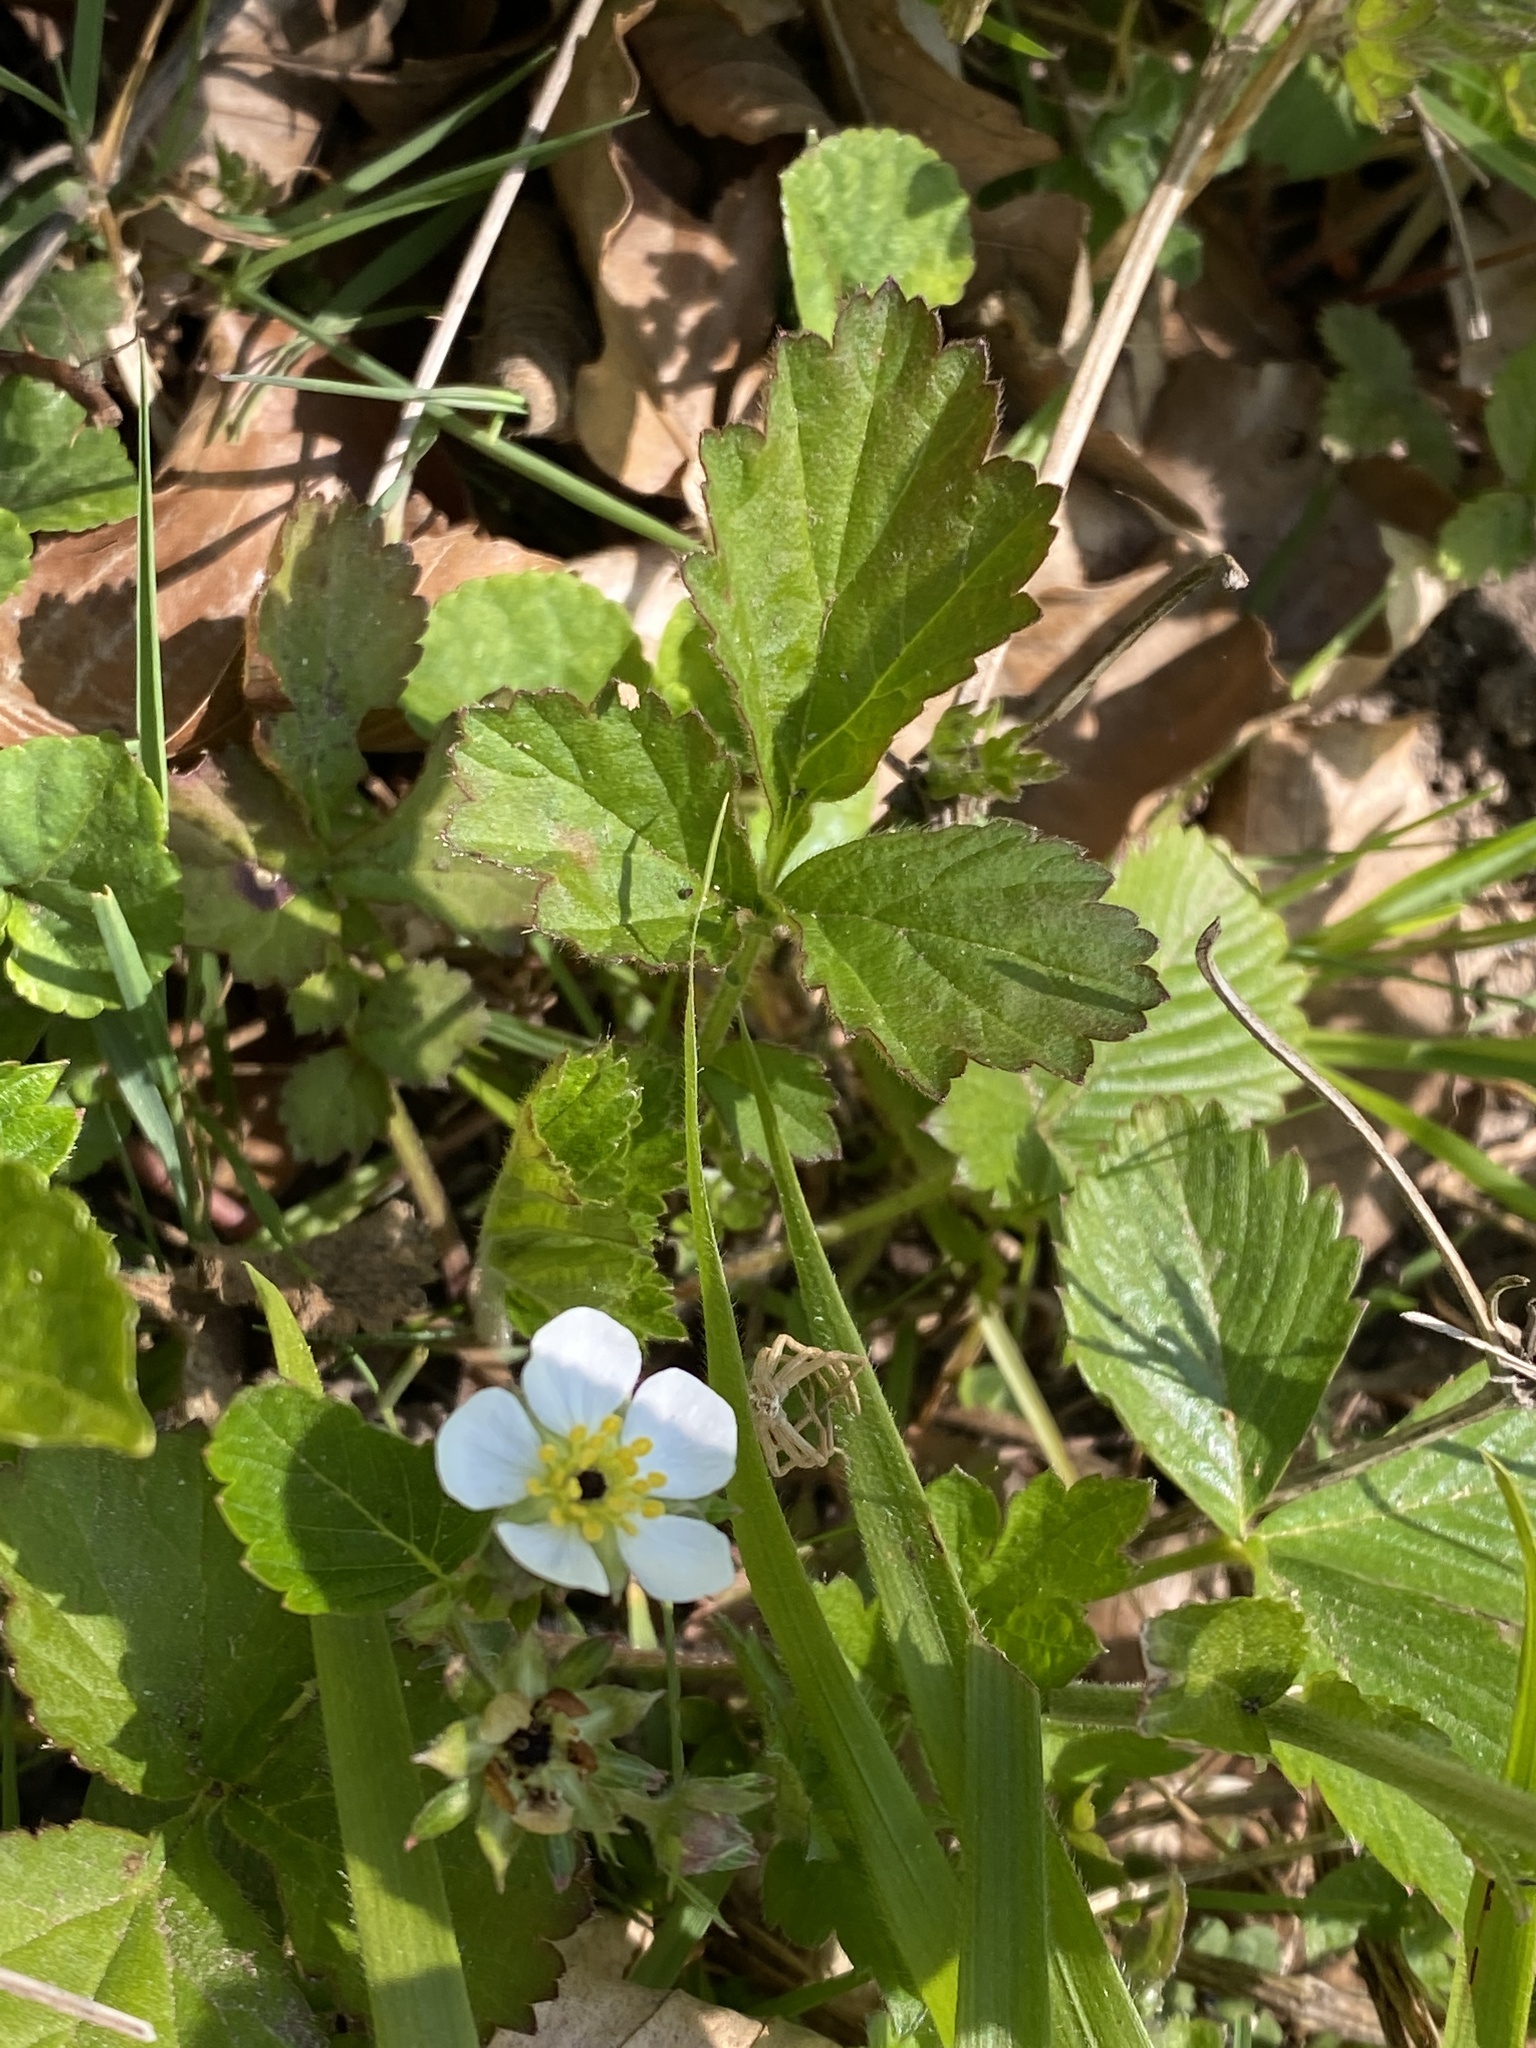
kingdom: Plantae
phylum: Tracheophyta
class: Magnoliopsida
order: Rosales
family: Rosaceae
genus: Fragaria
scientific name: Fragaria vesca
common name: Wild strawberry
